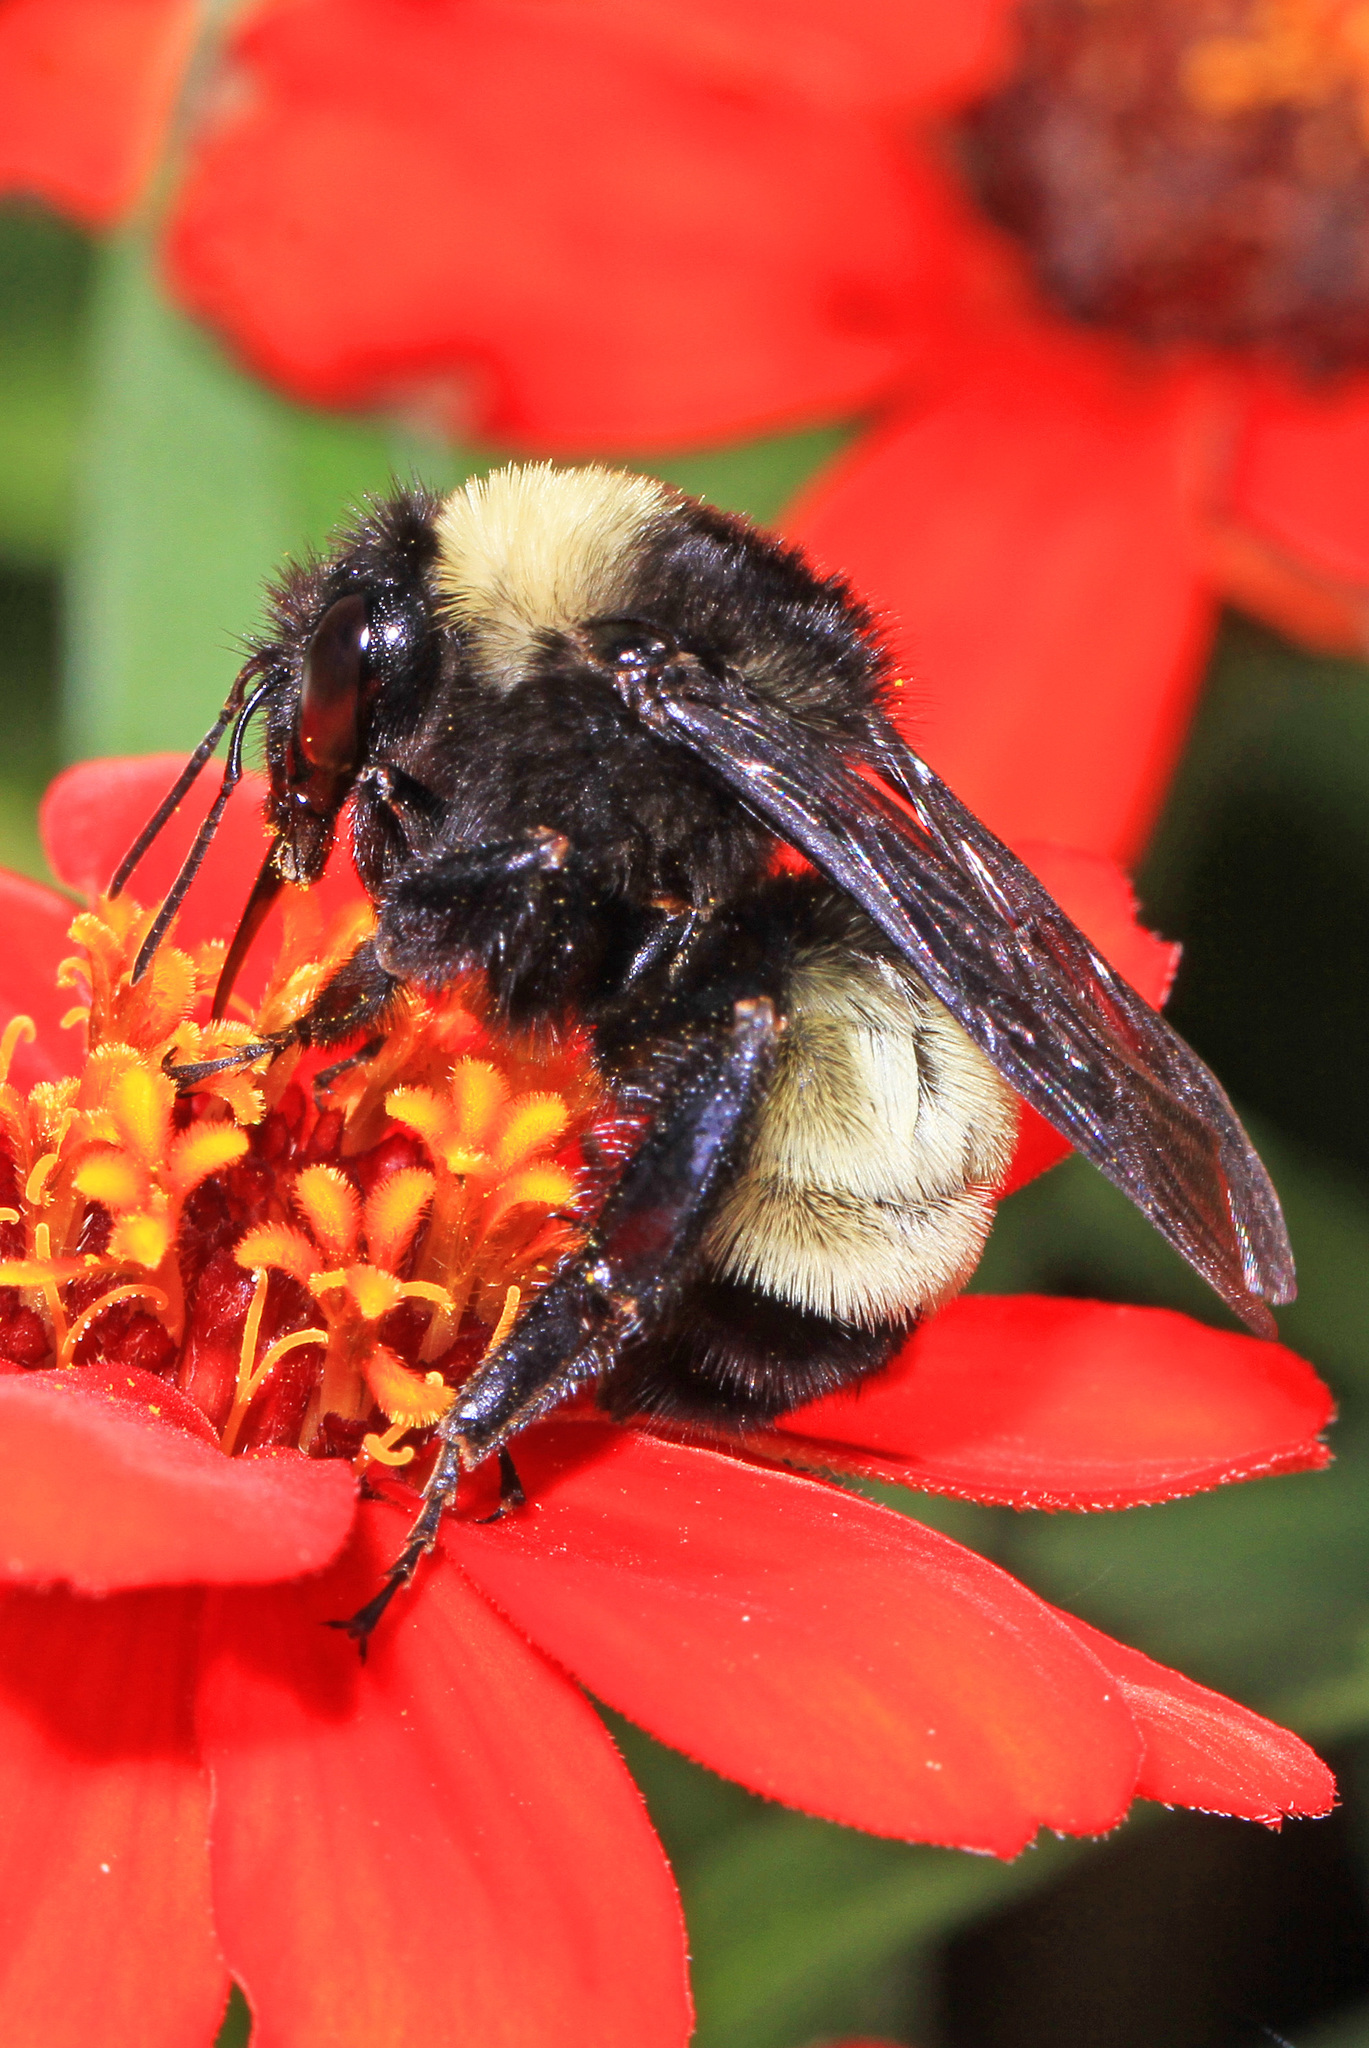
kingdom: Animalia
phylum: Arthropoda
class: Insecta
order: Hymenoptera
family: Apidae
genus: Bombus
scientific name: Bombus pensylvanicus
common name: Bumble bee
